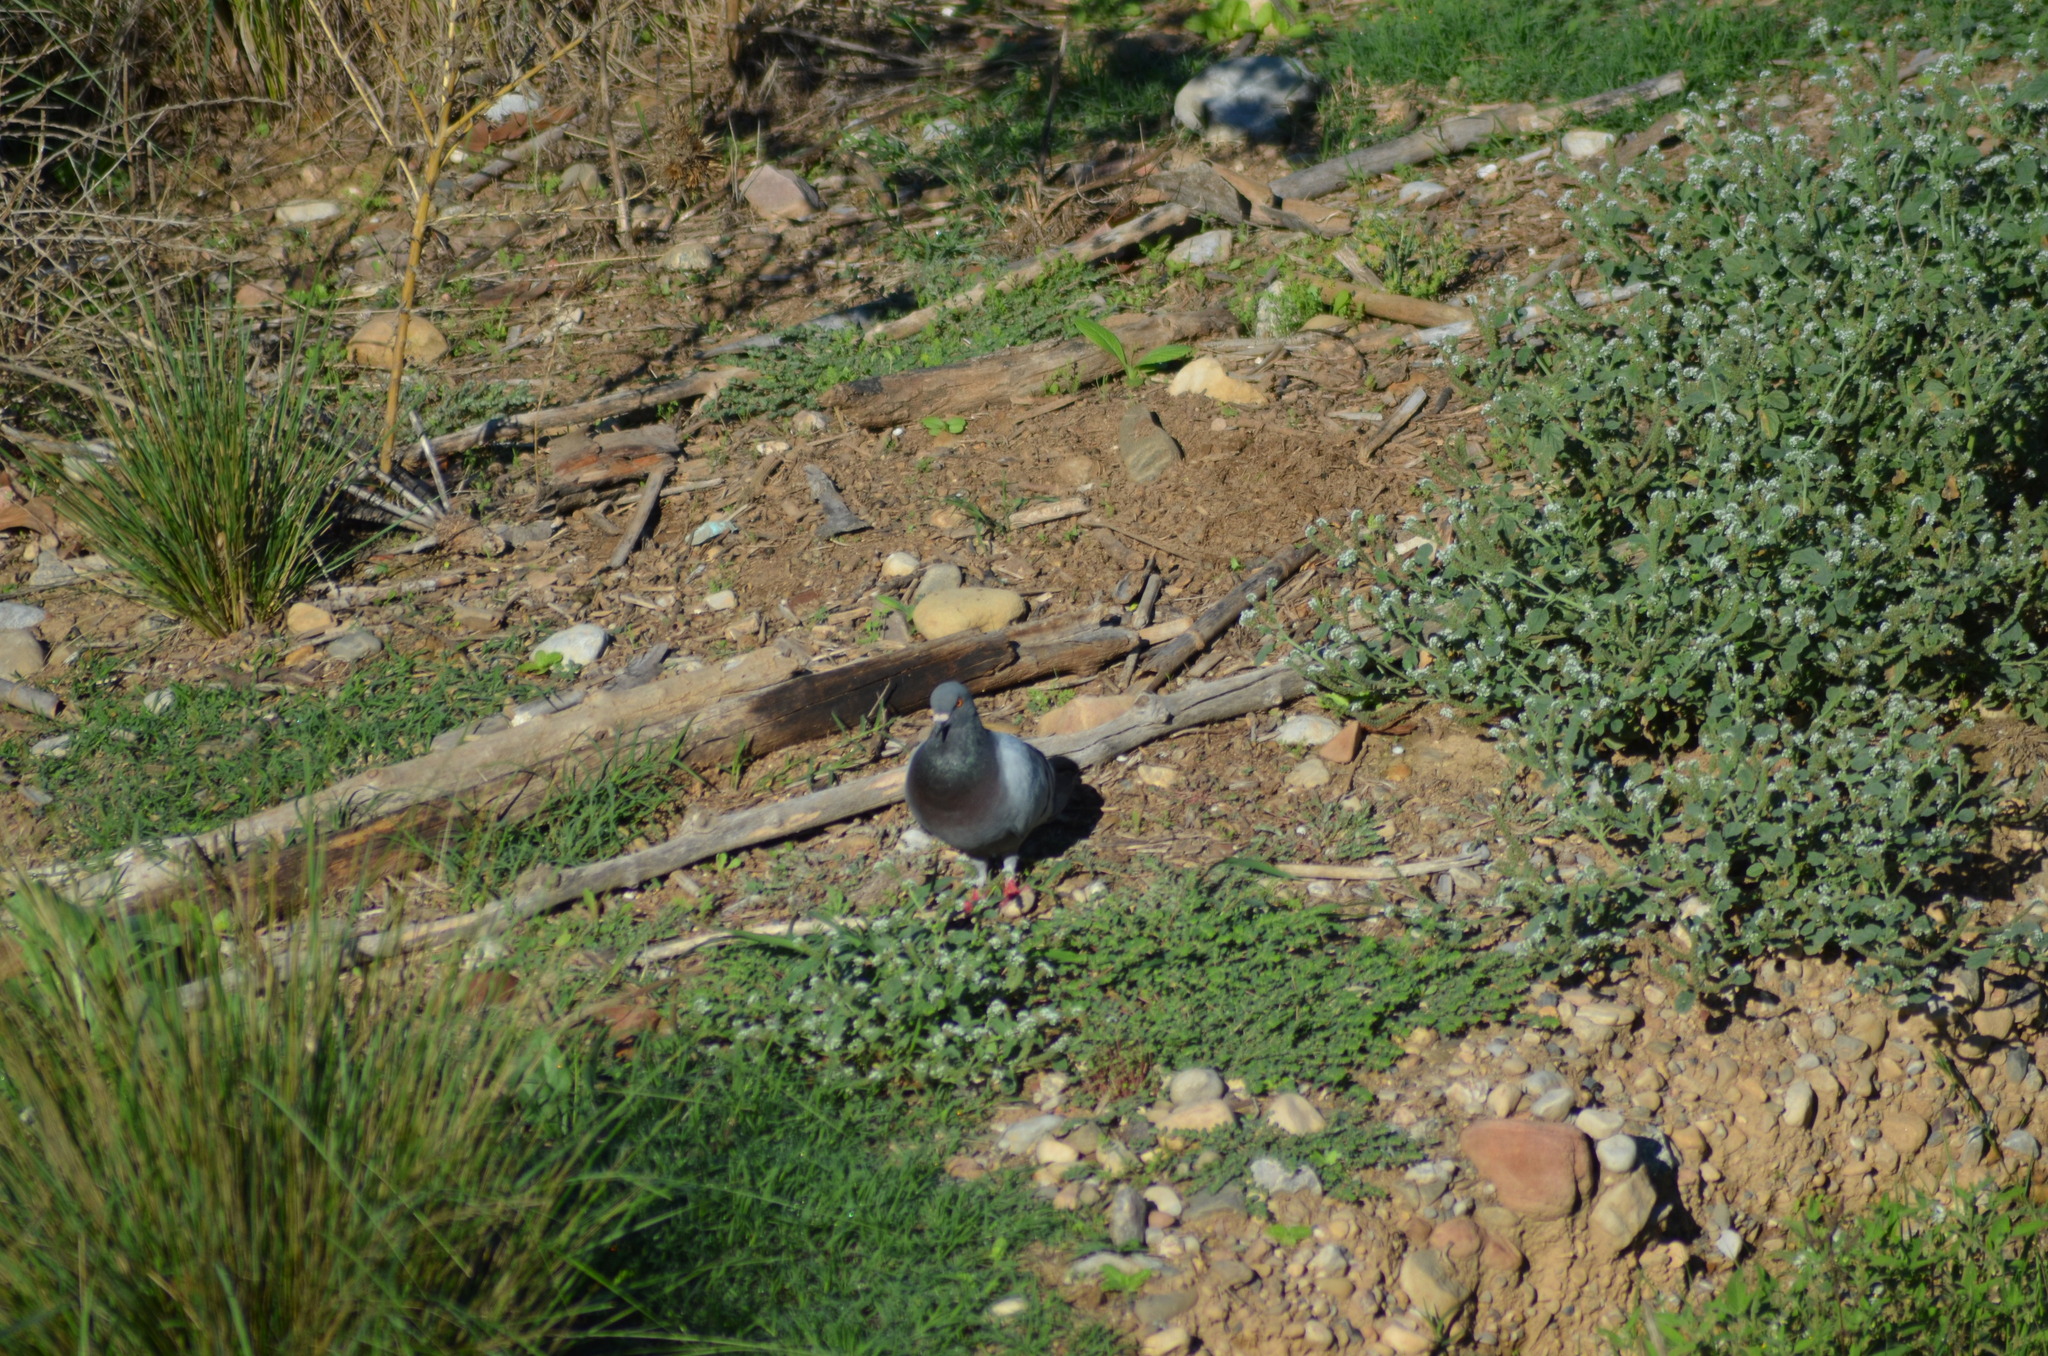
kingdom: Animalia
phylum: Chordata
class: Aves
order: Columbiformes
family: Columbidae
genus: Columba
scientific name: Columba livia
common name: Rock pigeon
